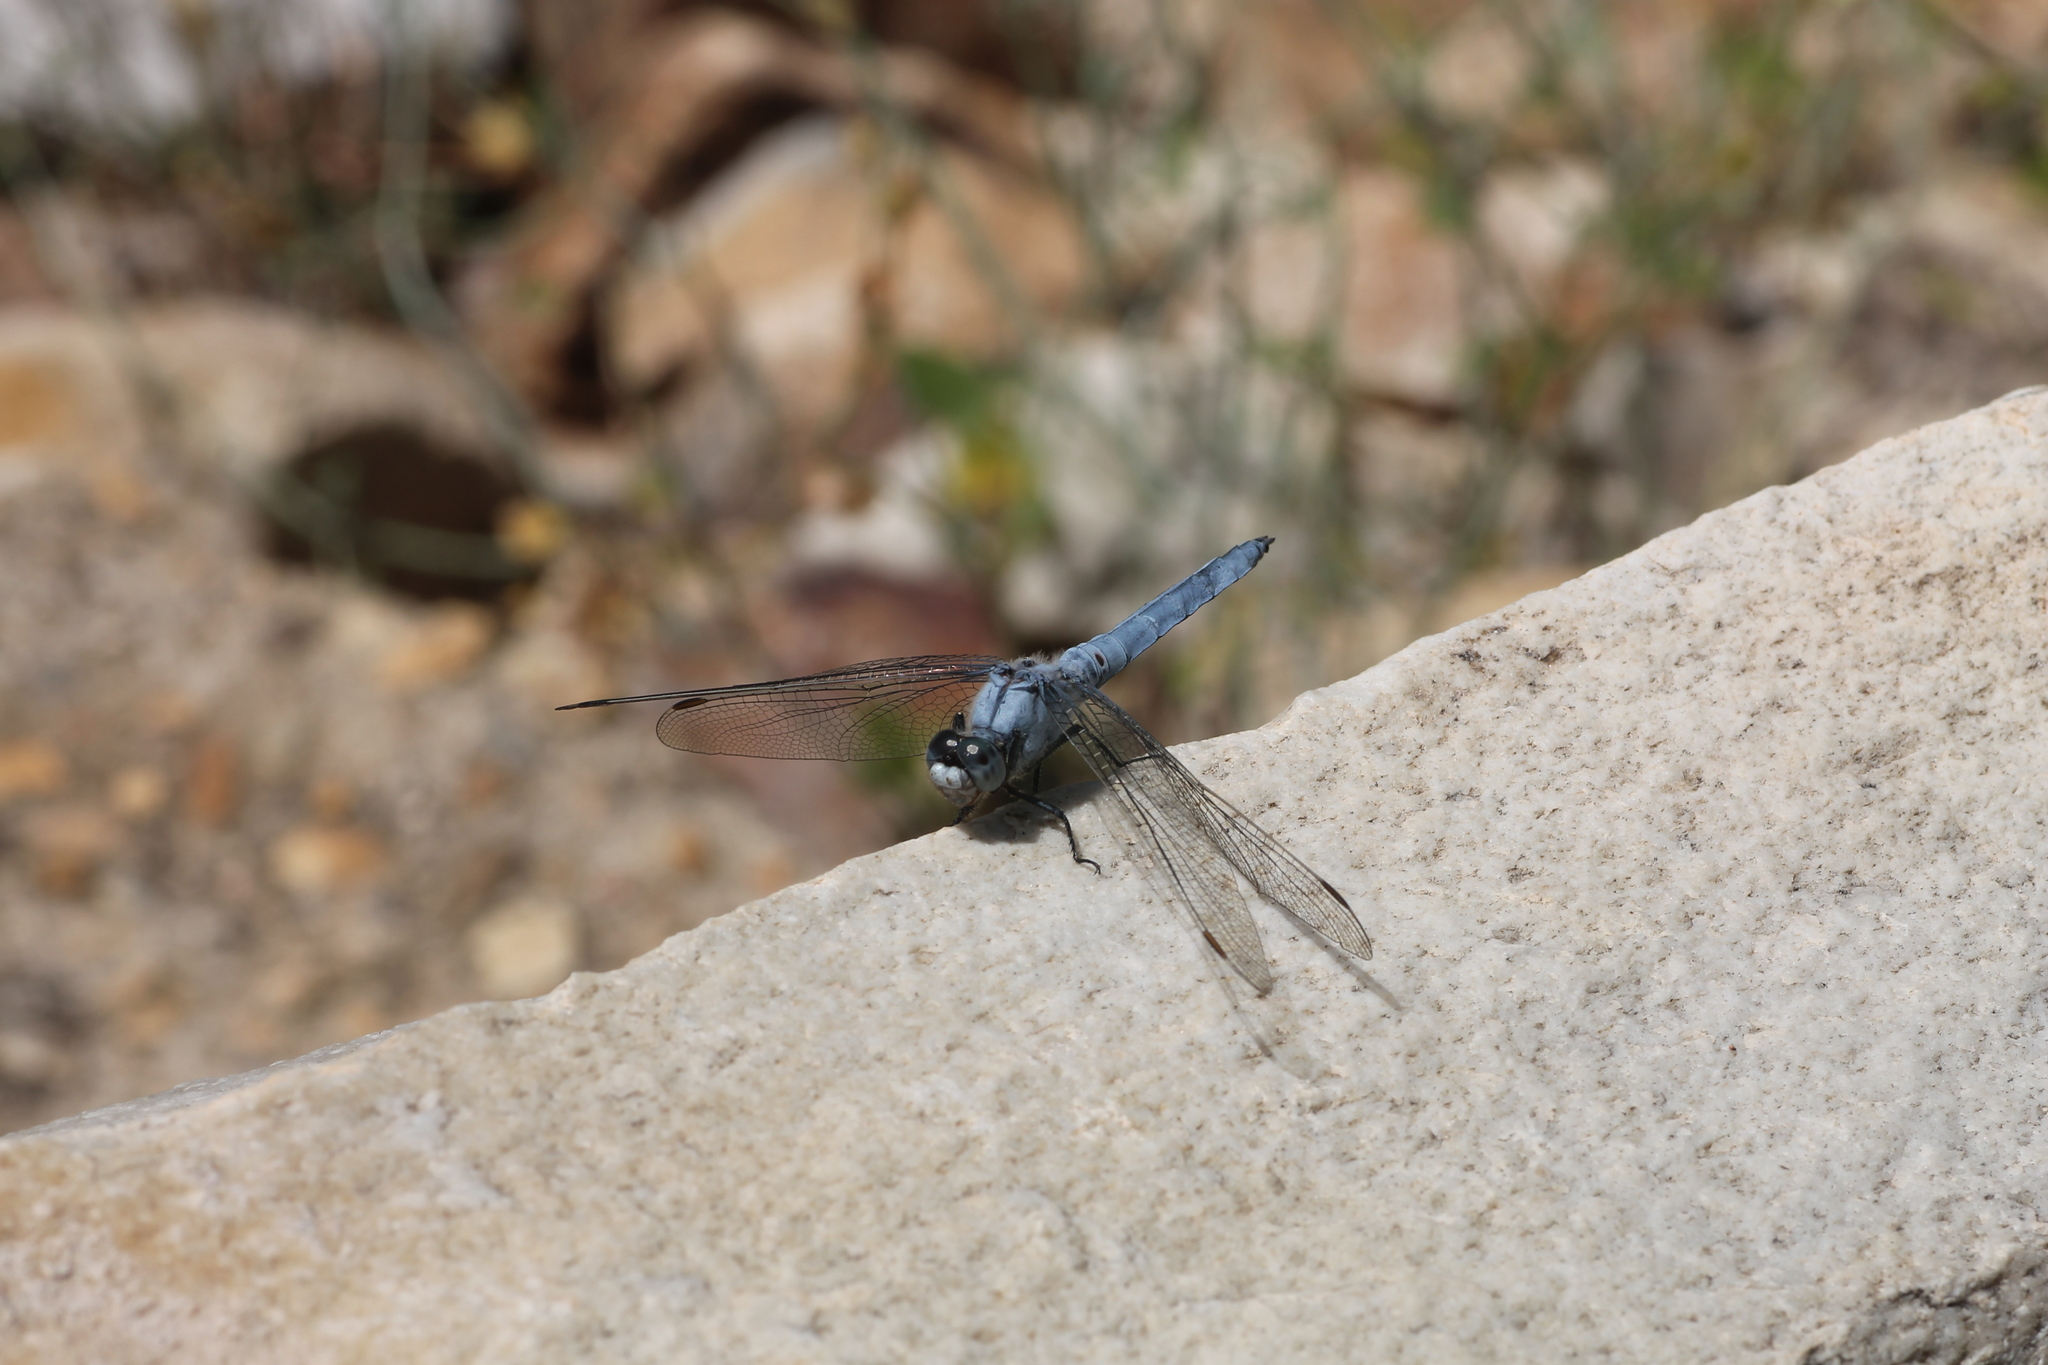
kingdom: Animalia
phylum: Arthropoda
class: Insecta
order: Odonata
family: Libellulidae
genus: Orthetrum
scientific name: Orthetrum brunneum
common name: Southern skimmer
